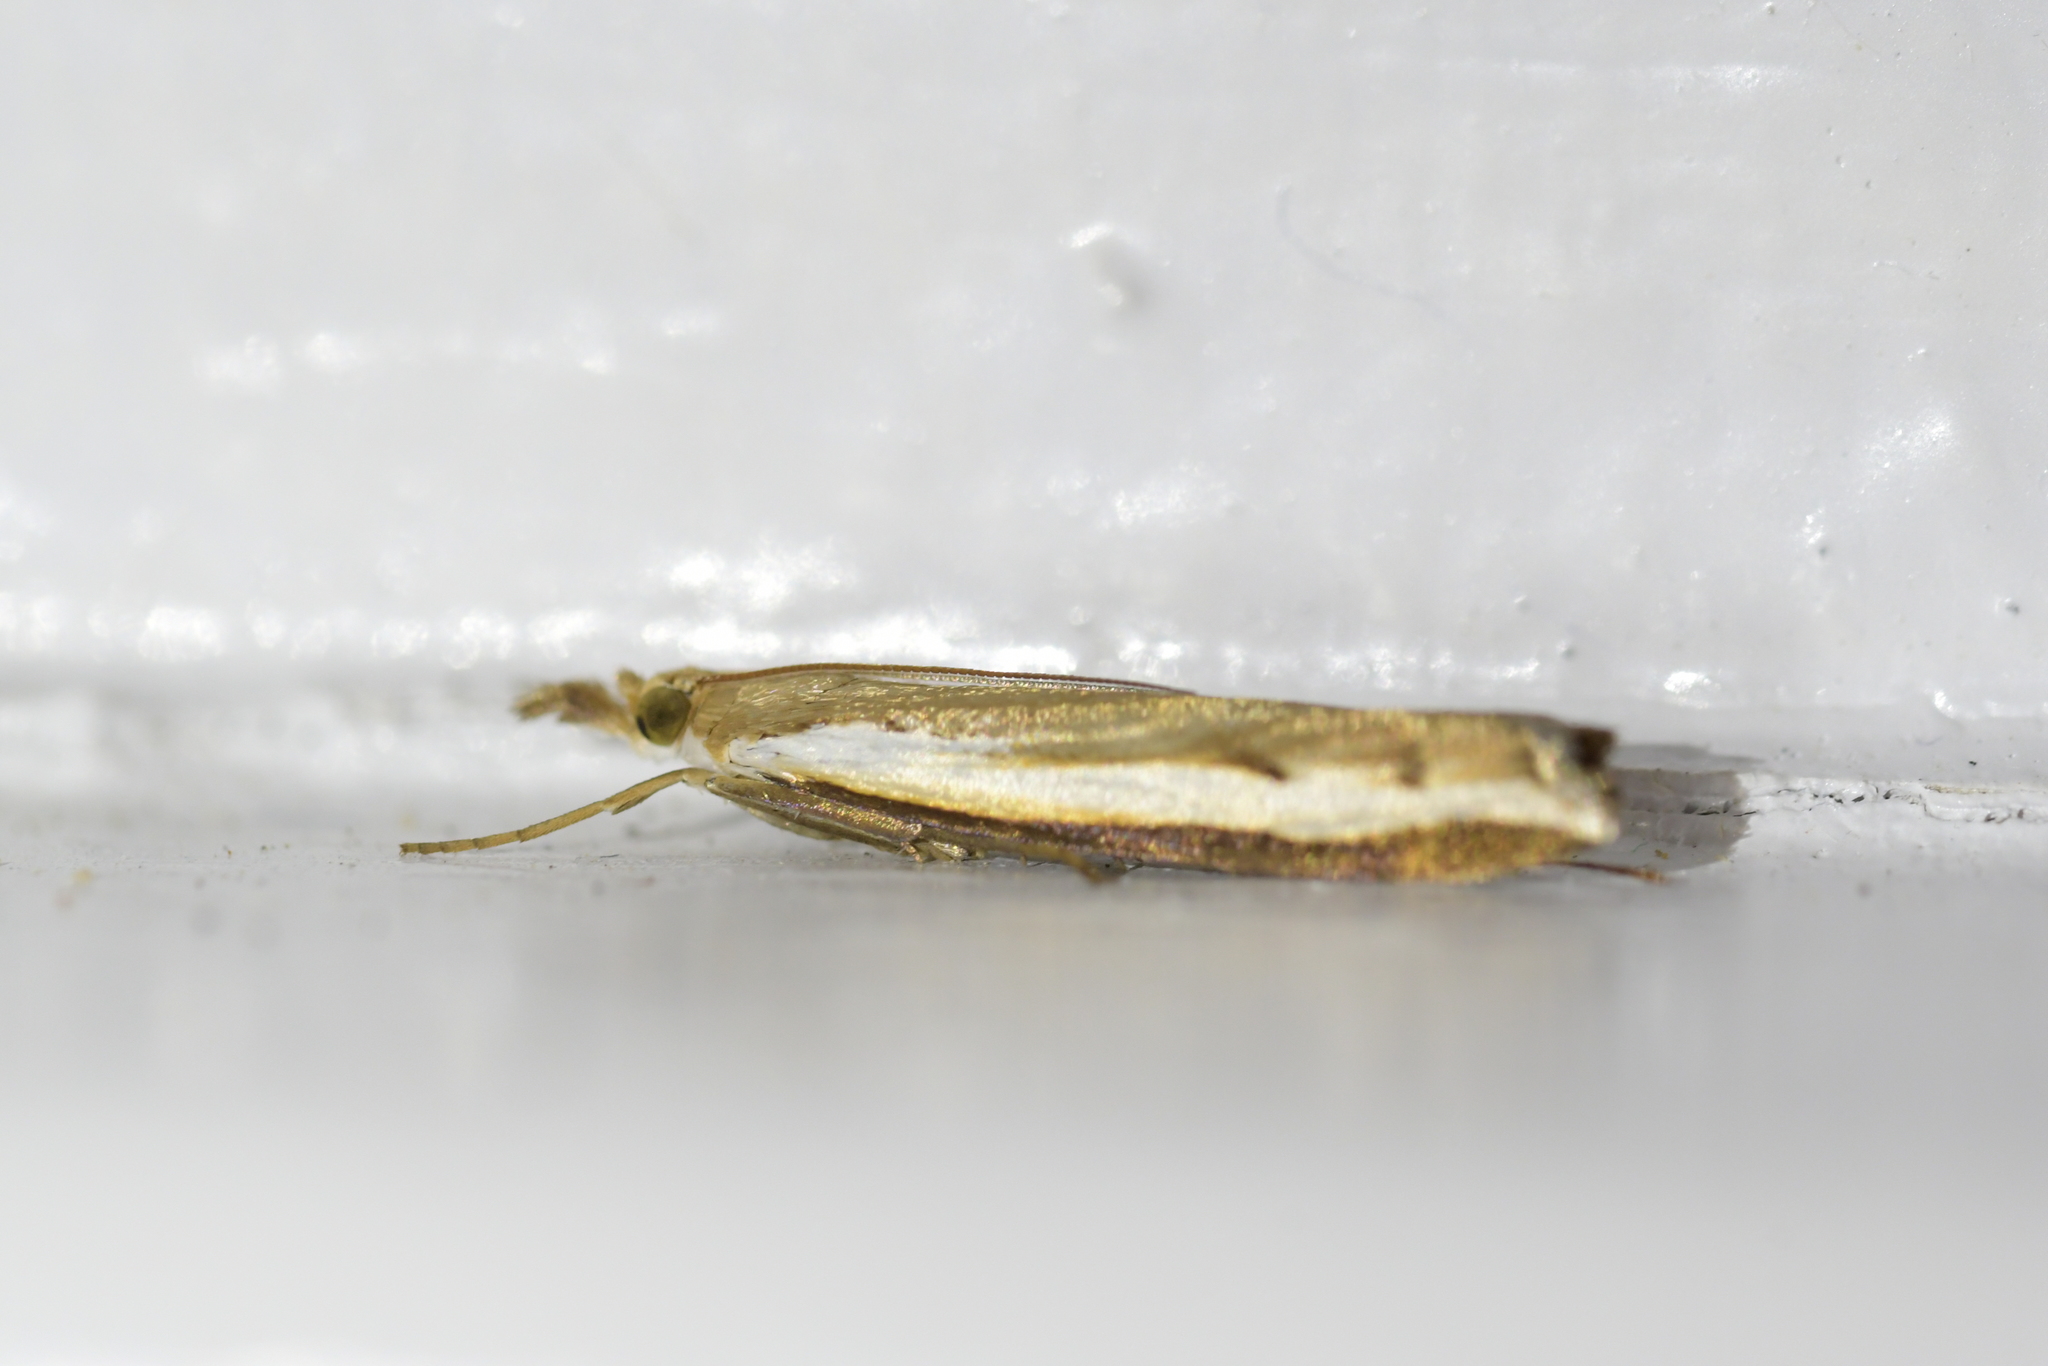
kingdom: Animalia
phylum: Arthropoda
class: Insecta
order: Lepidoptera
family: Crambidae
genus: Orocrambus
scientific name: Orocrambus flexuosellus
